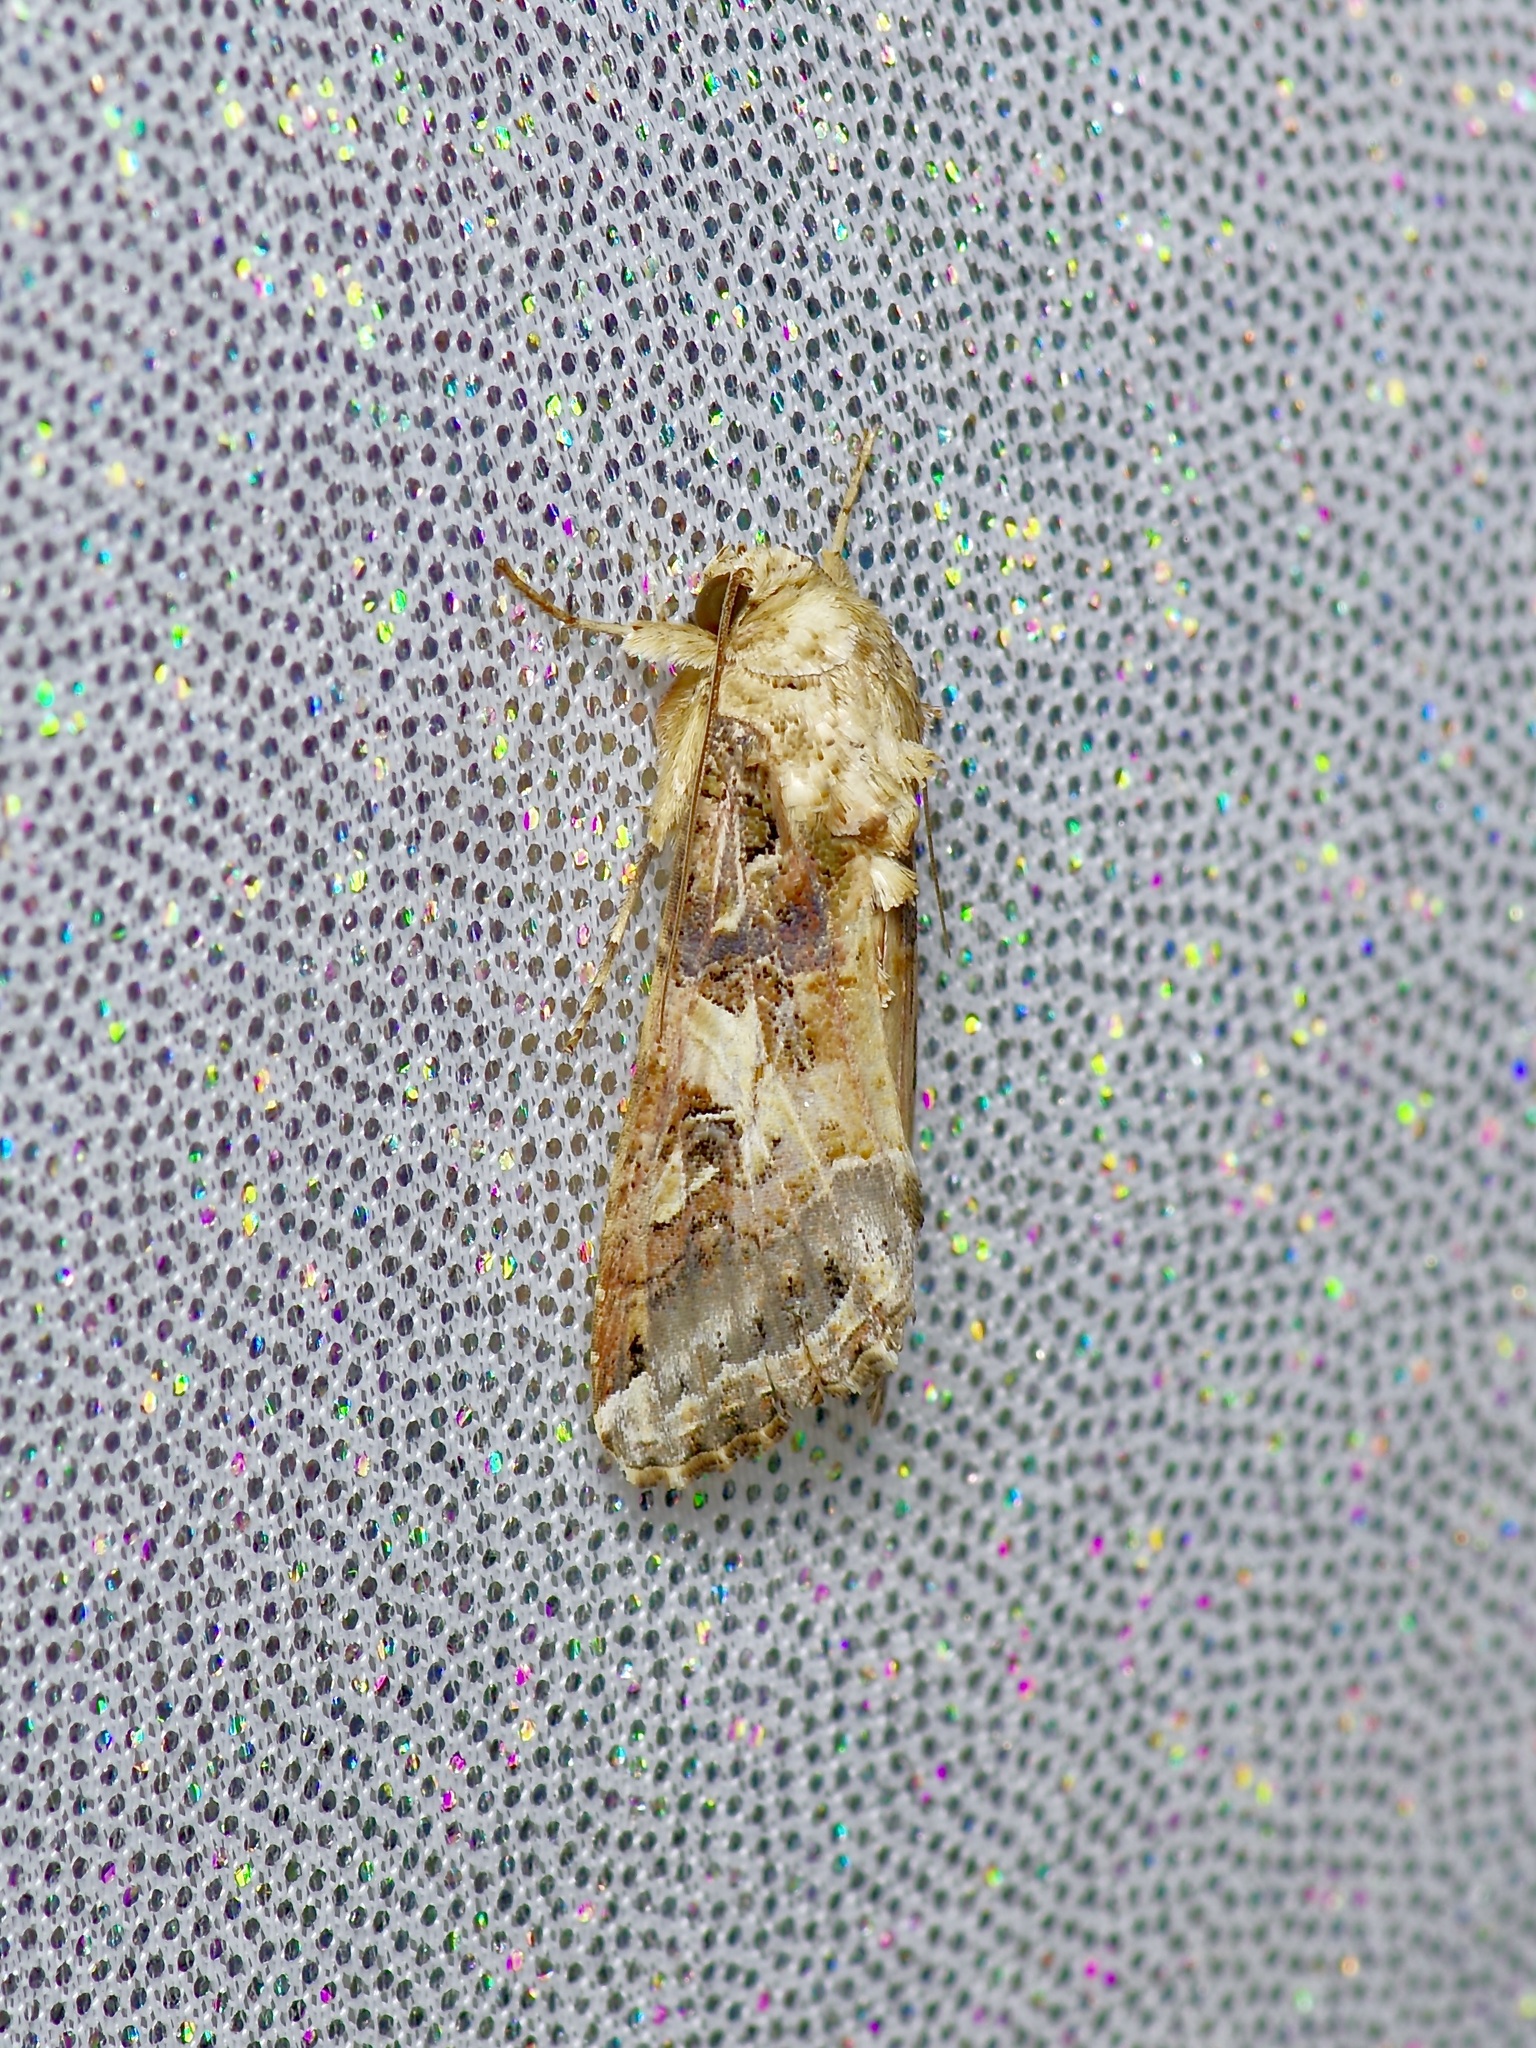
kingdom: Animalia
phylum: Arthropoda
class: Insecta
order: Lepidoptera
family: Noctuidae
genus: Spodoptera
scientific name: Spodoptera latifascia
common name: Velvet armyworm moth
